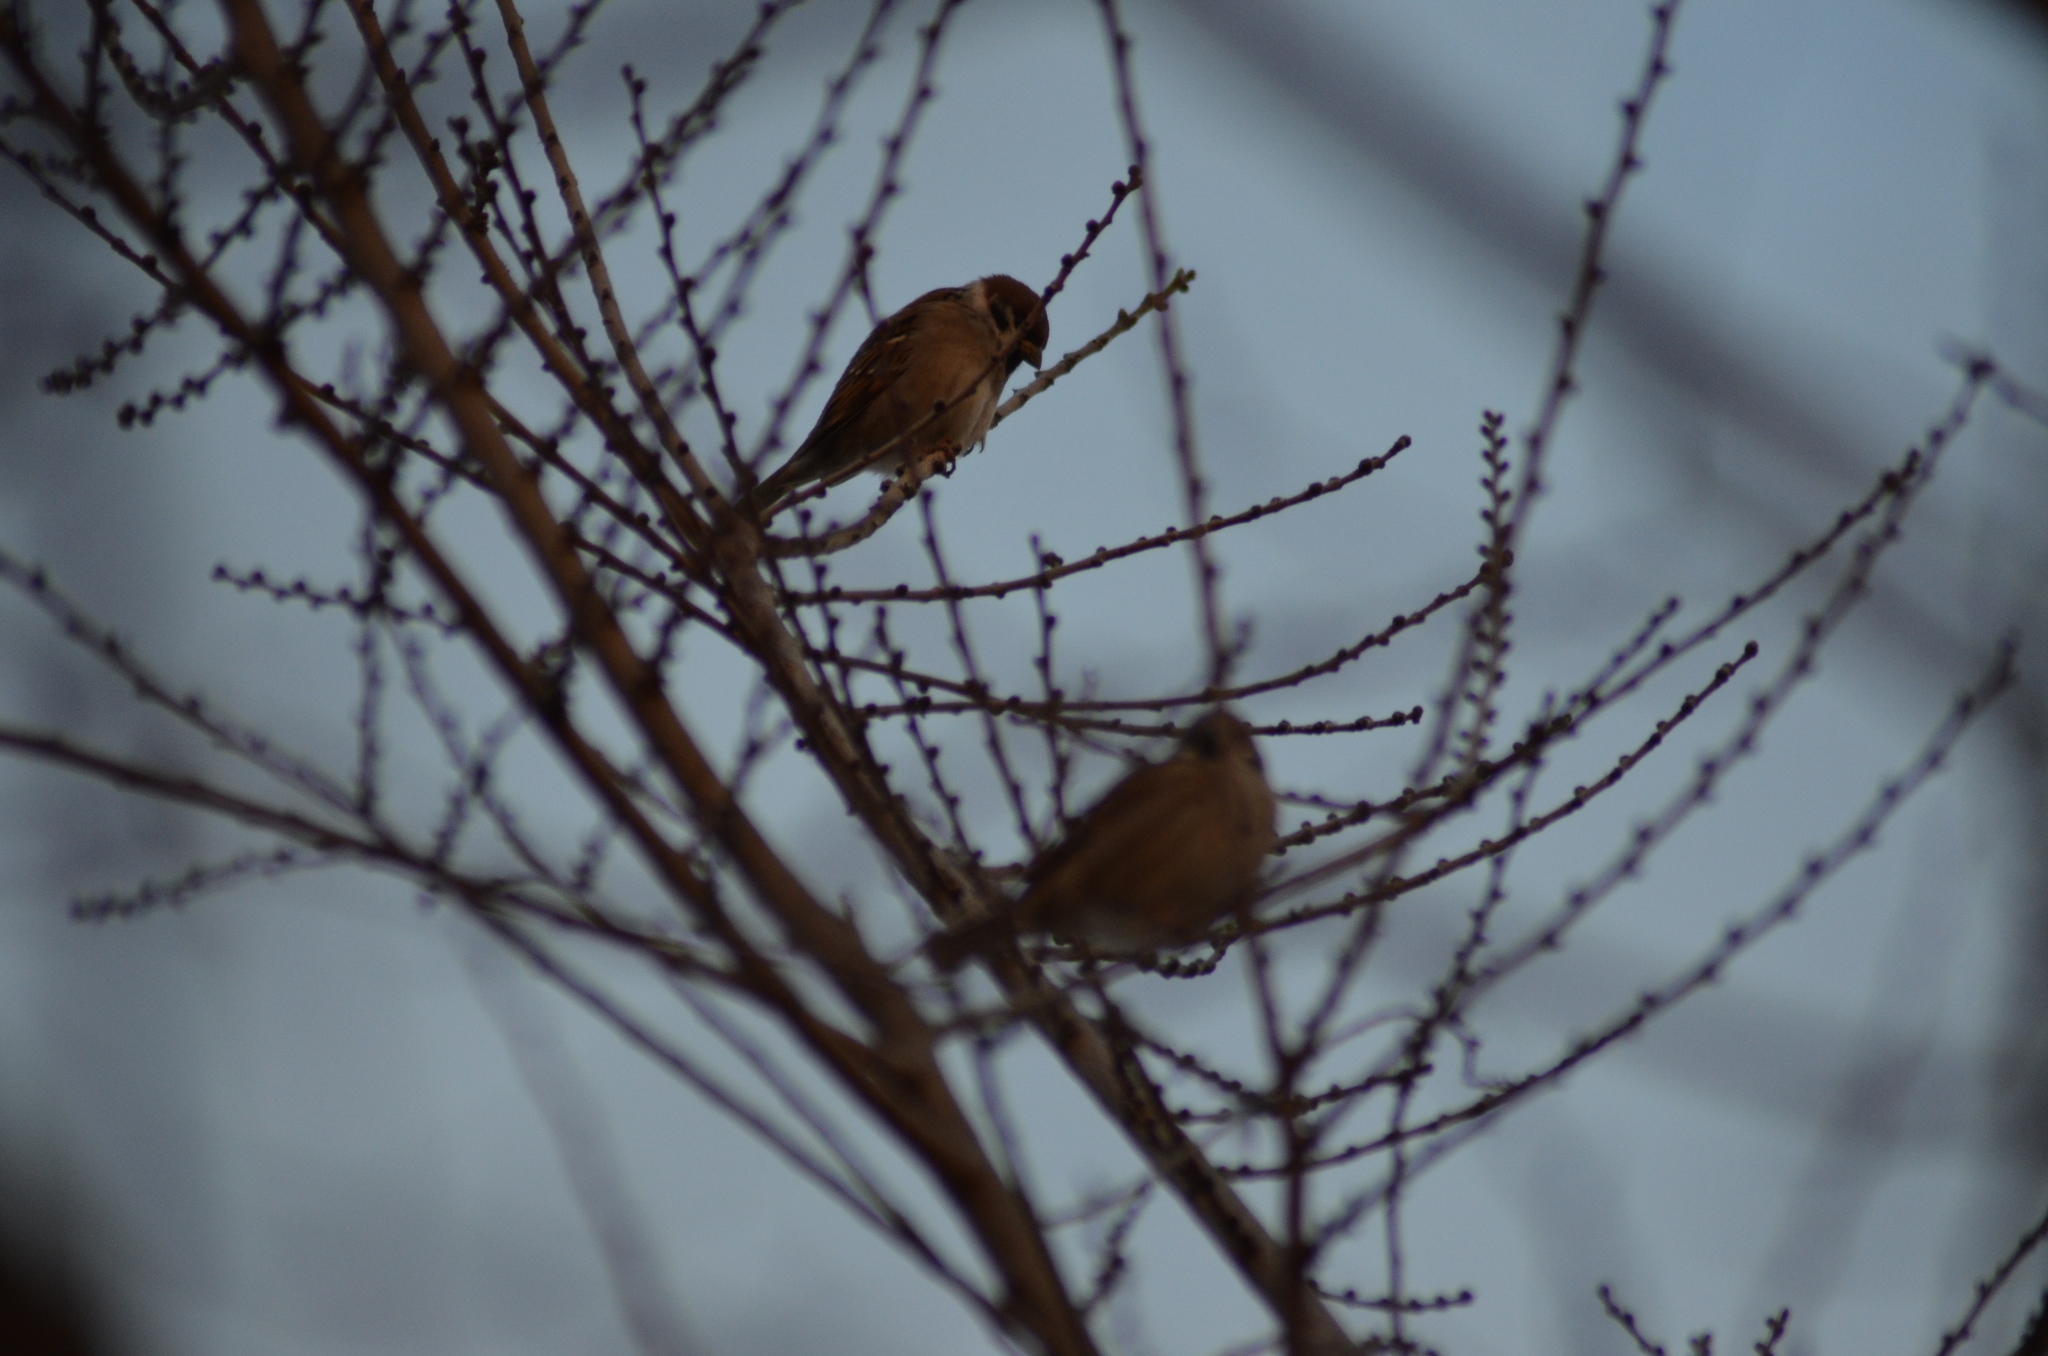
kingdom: Animalia
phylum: Chordata
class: Aves
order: Passeriformes
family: Passeridae
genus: Passer
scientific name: Passer montanus
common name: Eurasian tree sparrow
